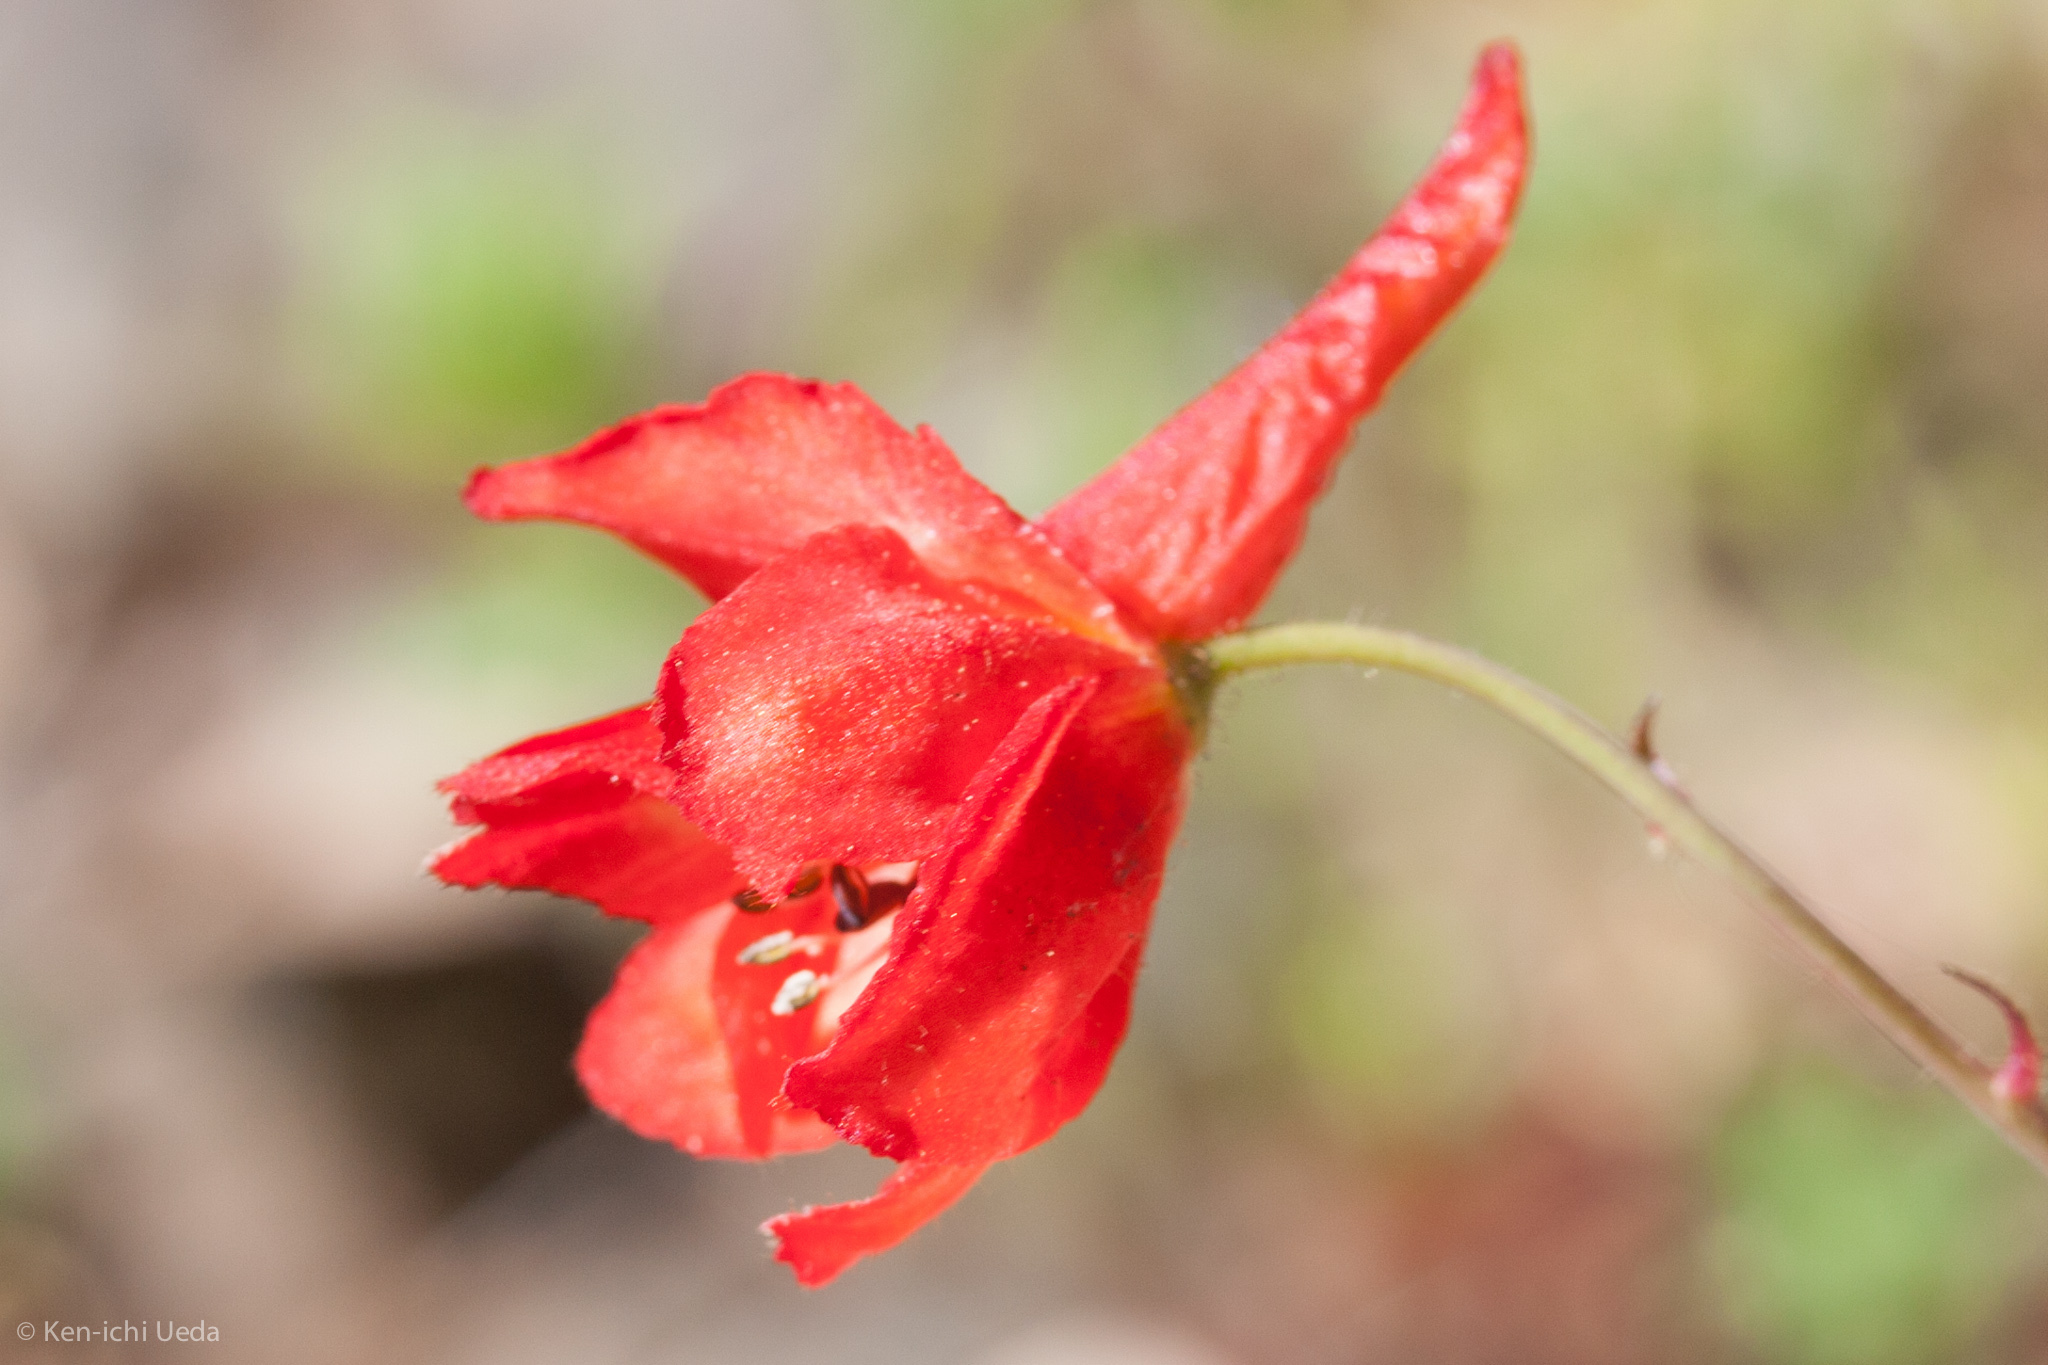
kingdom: Plantae
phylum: Tracheophyta
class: Magnoliopsida
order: Ranunculales
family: Ranunculaceae
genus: Delphinium
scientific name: Delphinium nudicaule
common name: Red larkspur
